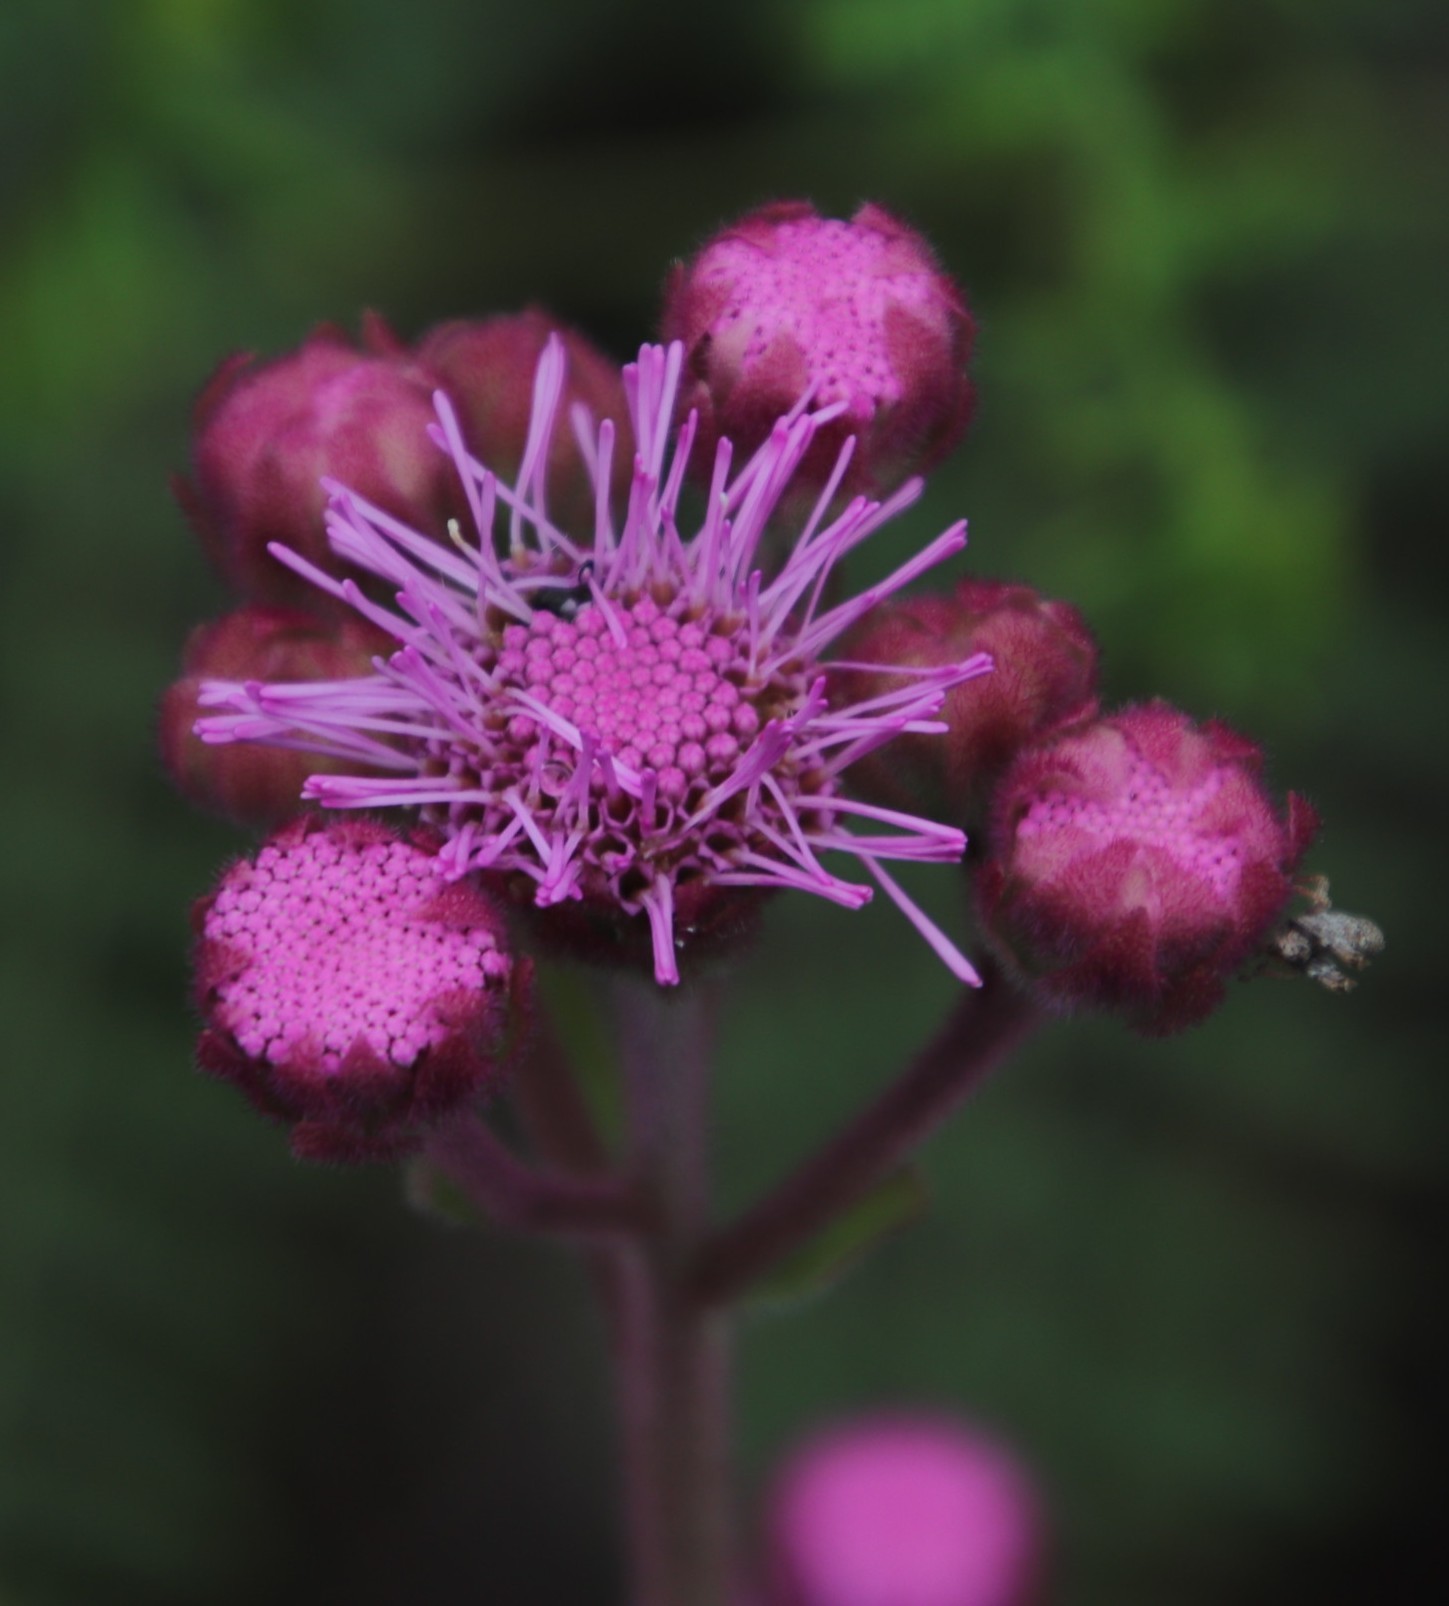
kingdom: Plantae
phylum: Tracheophyta
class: Magnoliopsida
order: Asterales
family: Asteraceae
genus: Campuloclinium
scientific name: Campuloclinium macrocephalum
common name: Pompomweed
